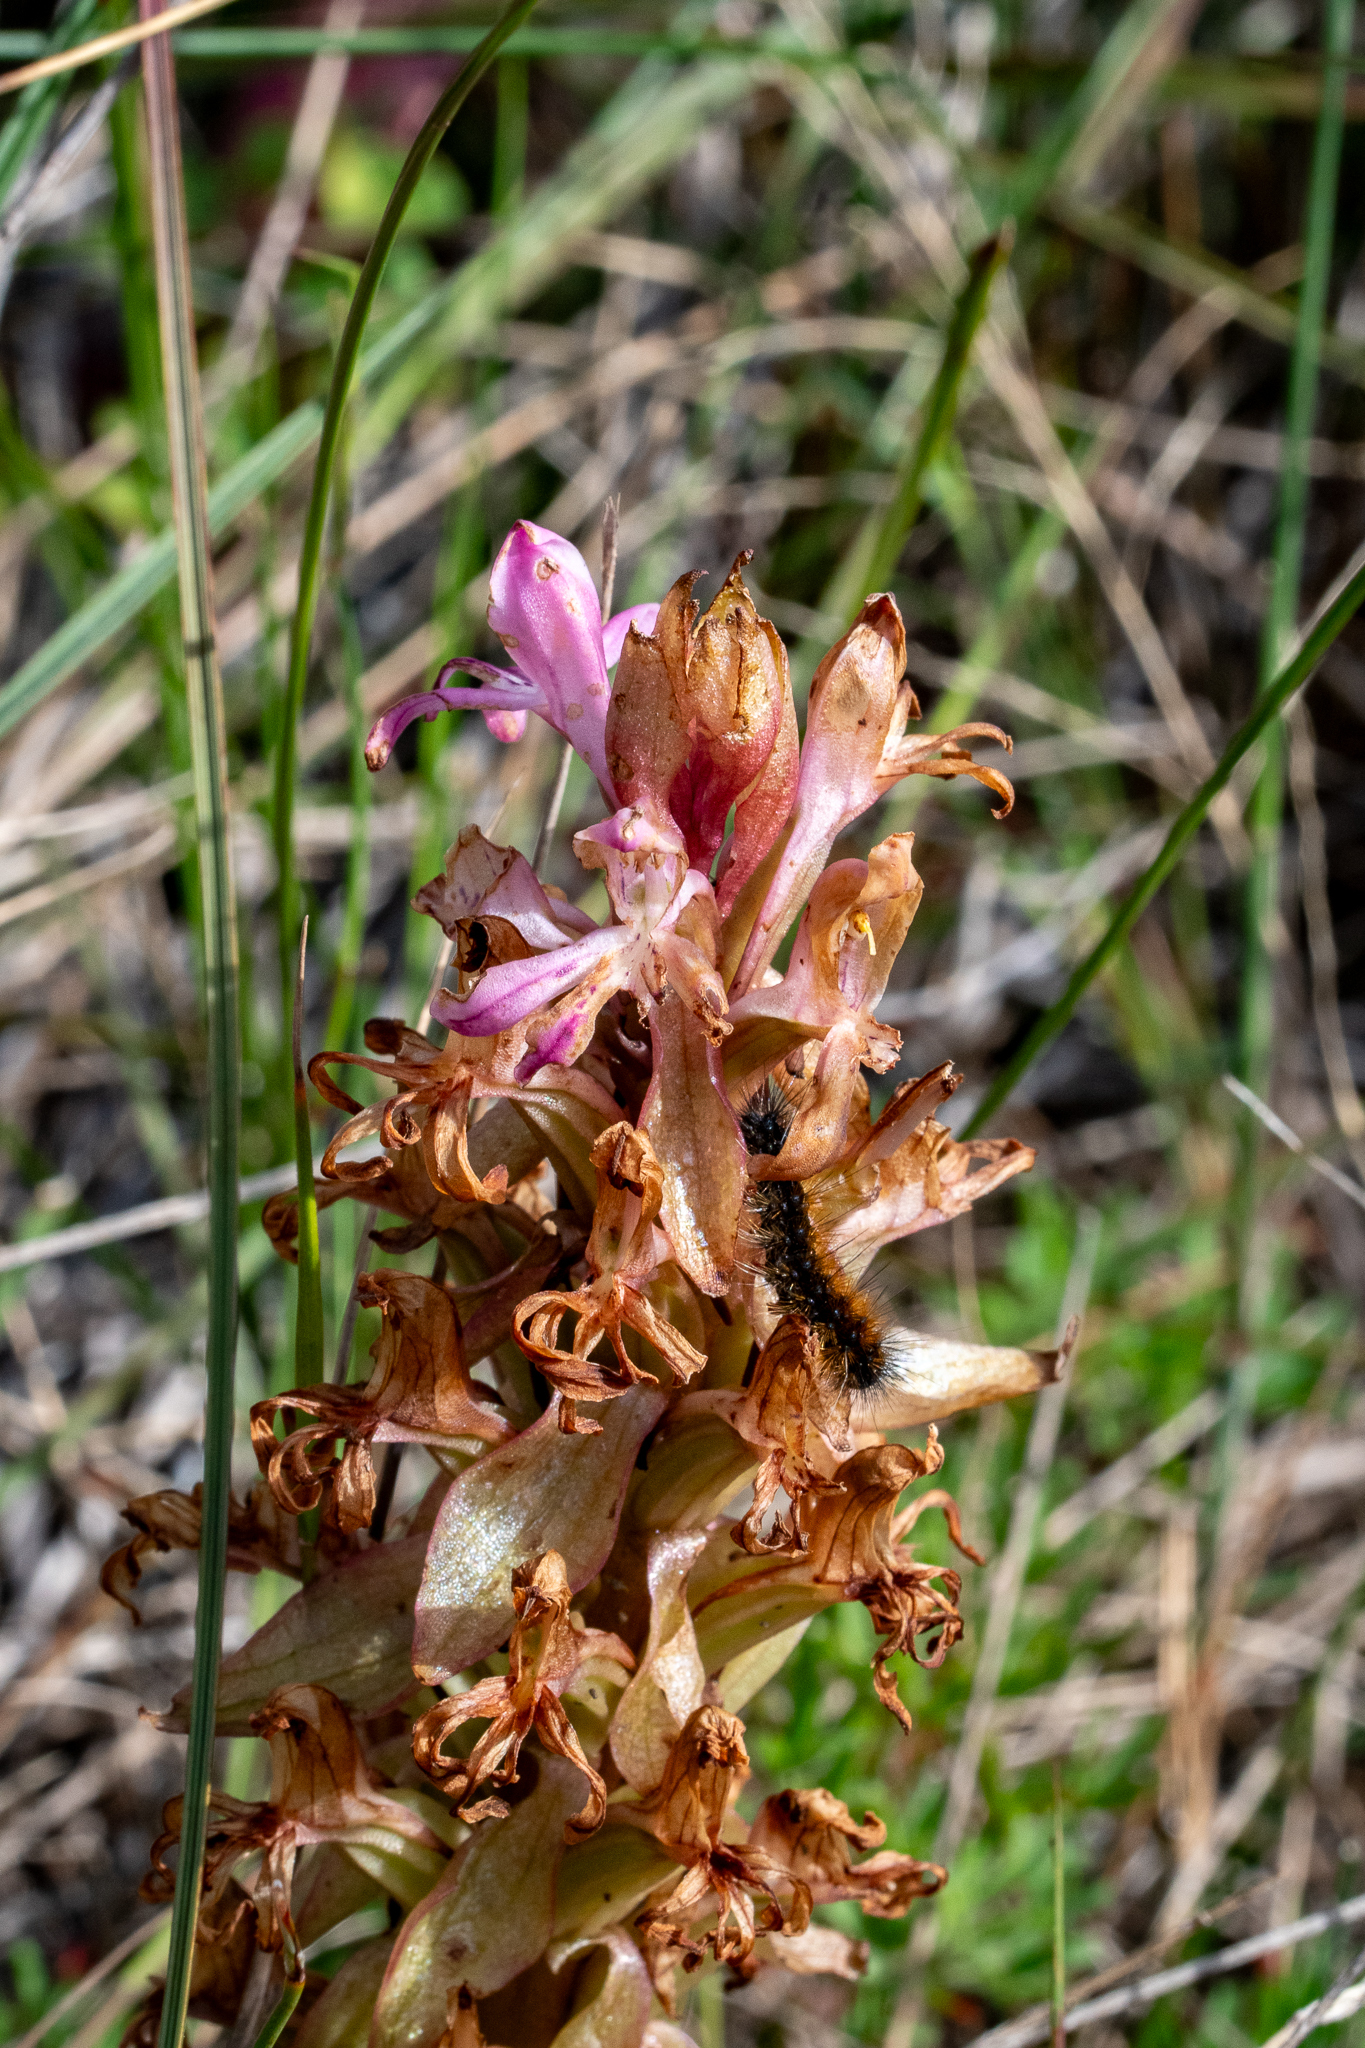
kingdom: Plantae
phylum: Tracheophyta
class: Liliopsida
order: Asparagales
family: Orchidaceae
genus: Satyrium
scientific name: Satyrium erectum
